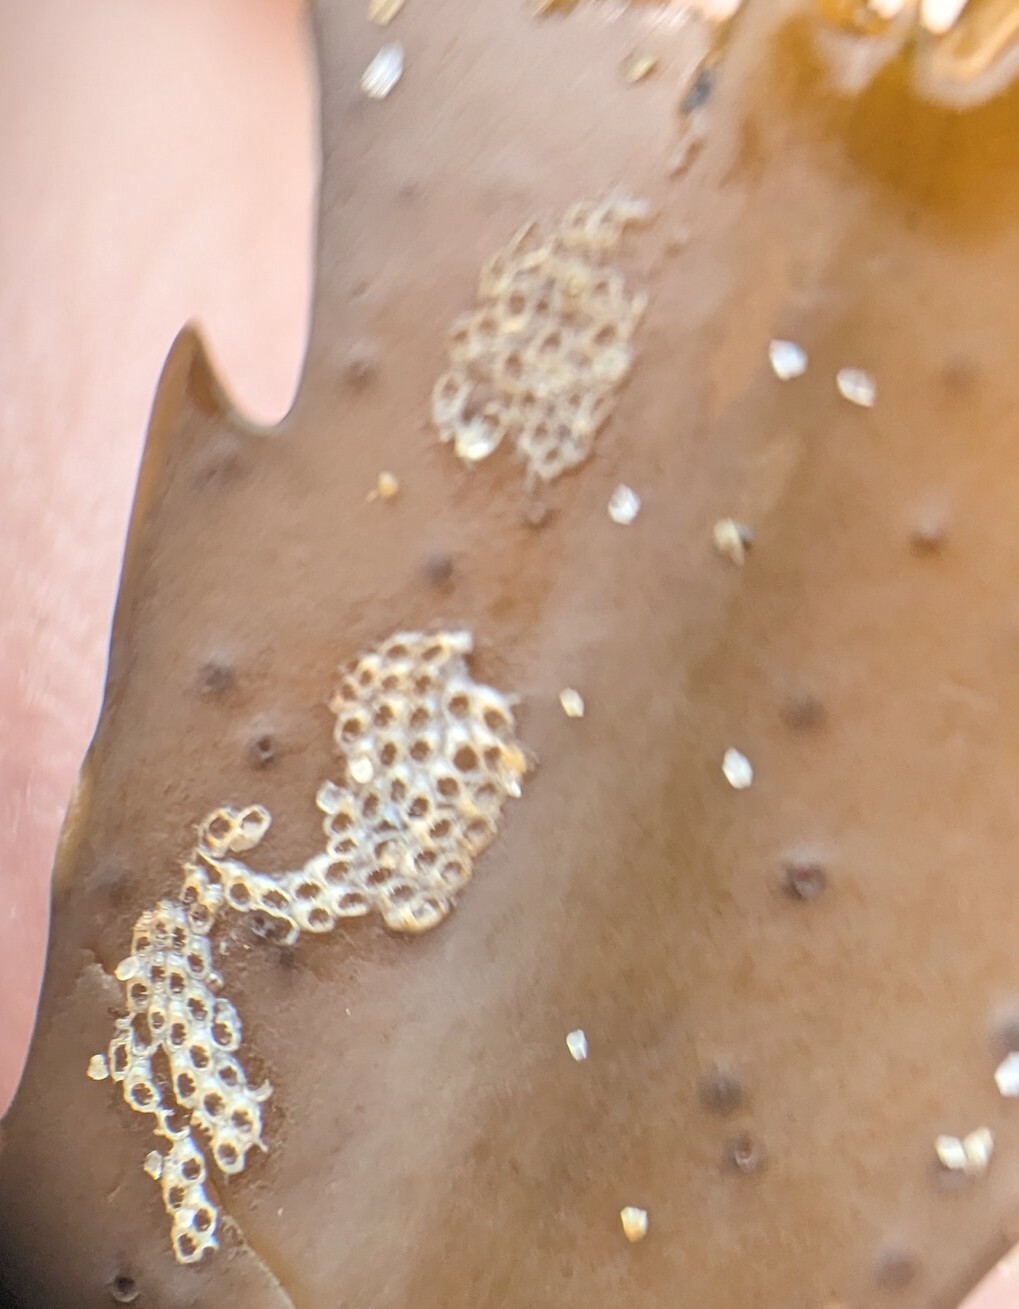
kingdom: Animalia
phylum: Bryozoa
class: Gymnolaemata
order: Cheilostomatida
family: Electridae
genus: Electra
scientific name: Electra pilosa
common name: Hairy sea-mat
